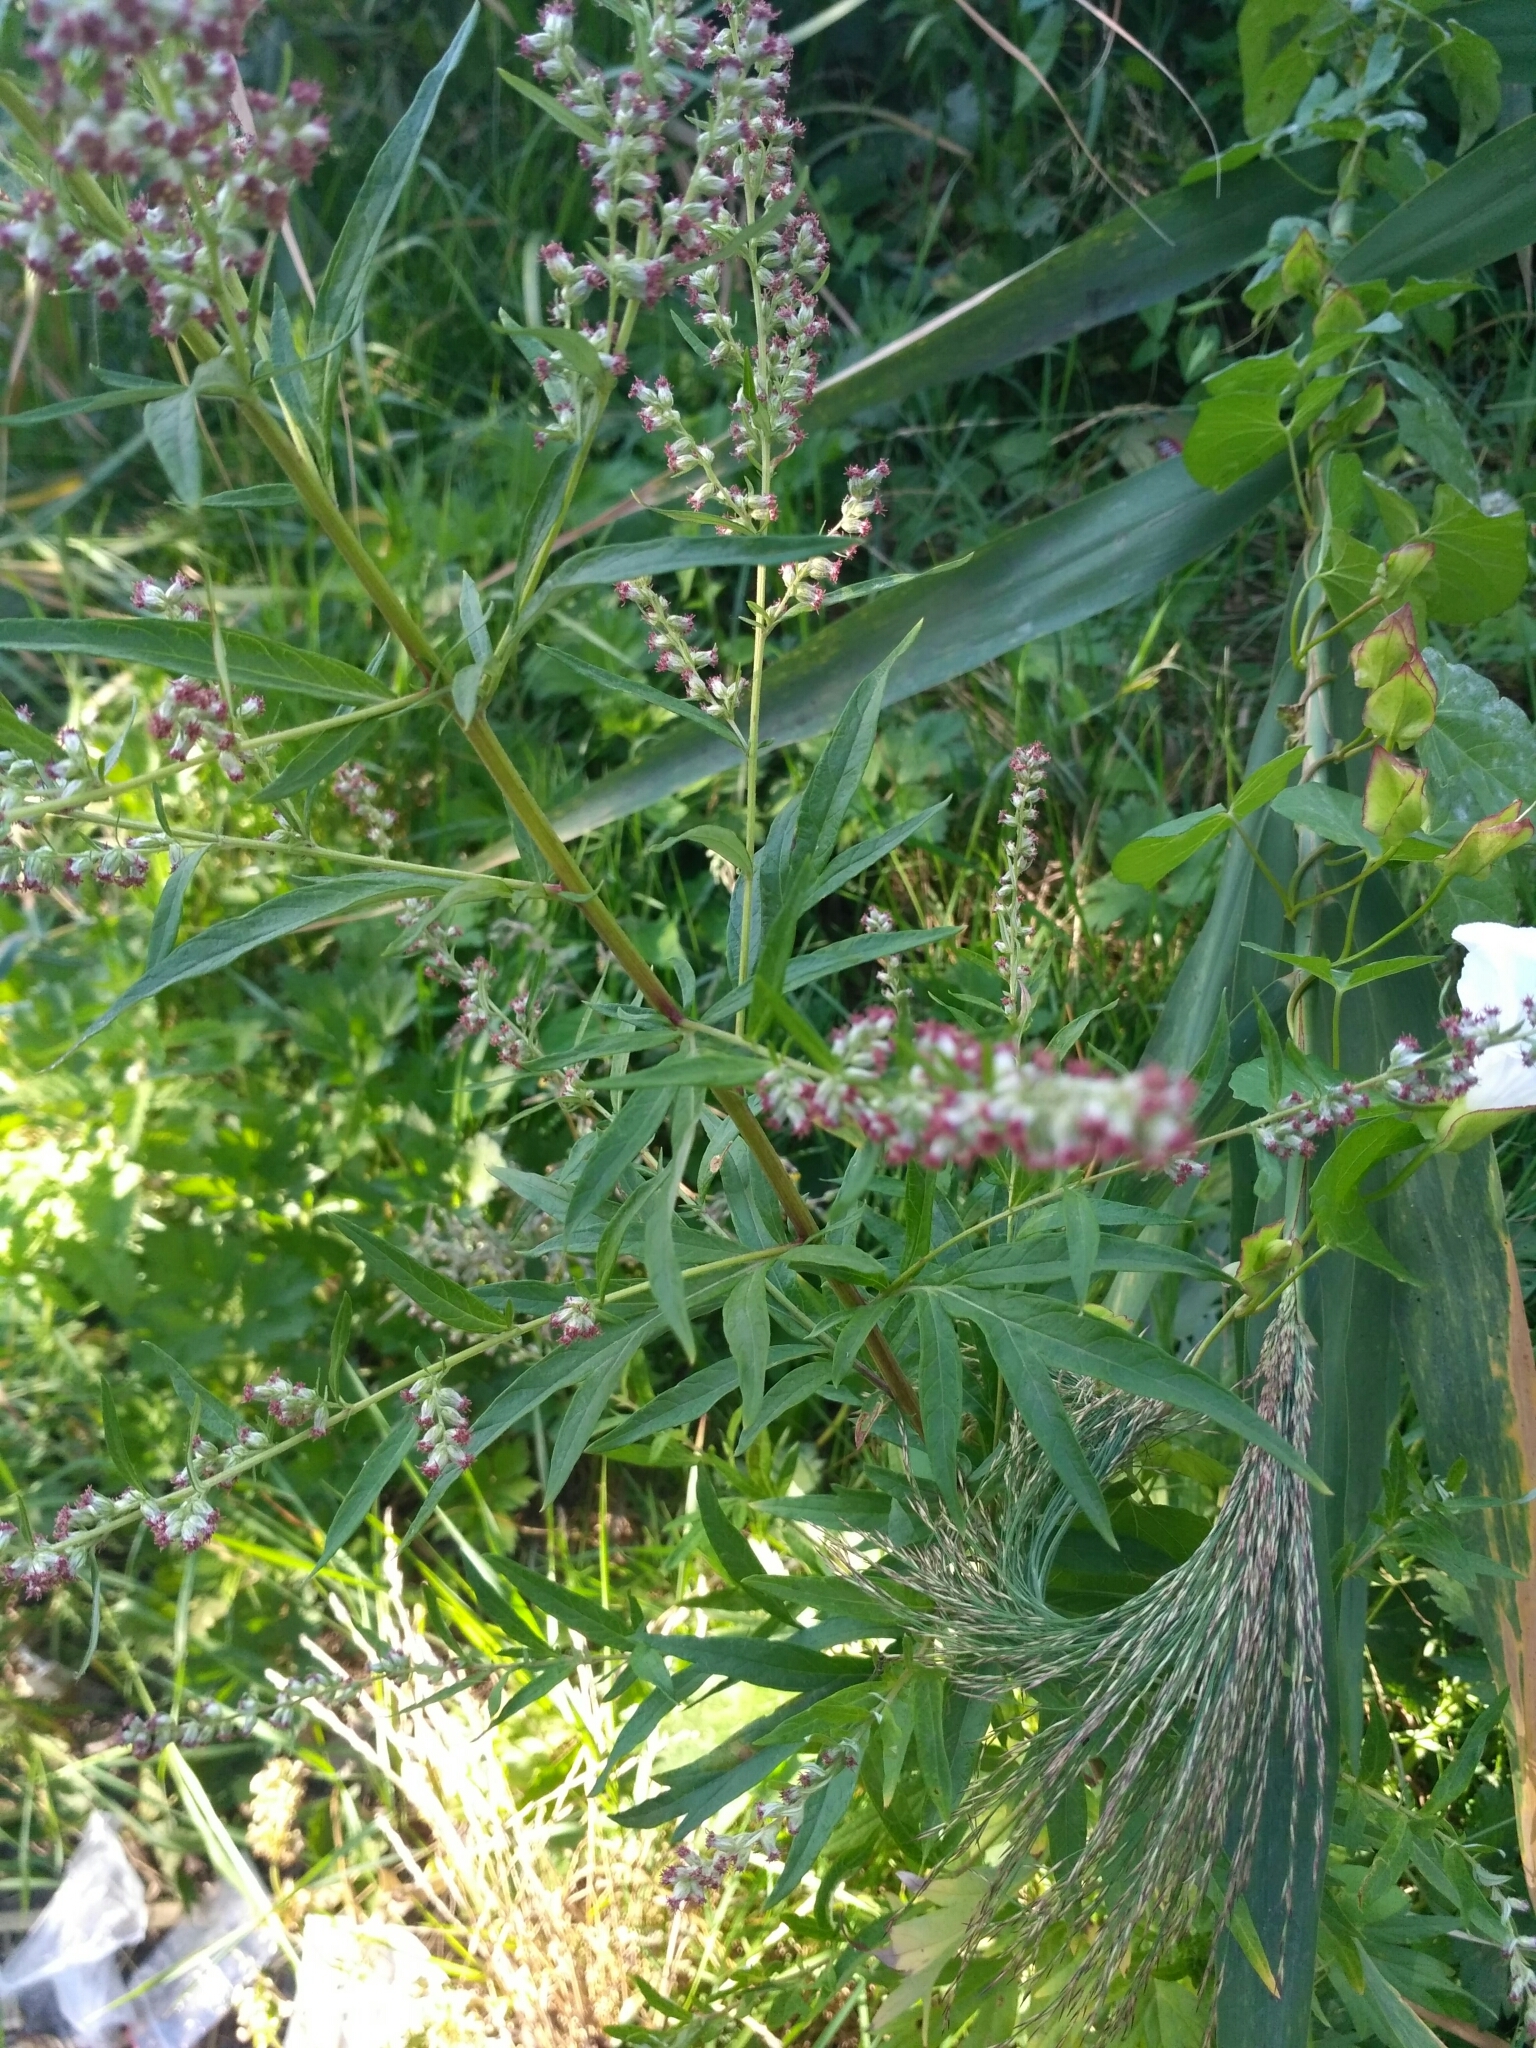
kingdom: Plantae
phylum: Tracheophyta
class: Magnoliopsida
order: Asterales
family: Asteraceae
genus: Artemisia
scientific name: Artemisia vulgaris
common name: Mugwort
